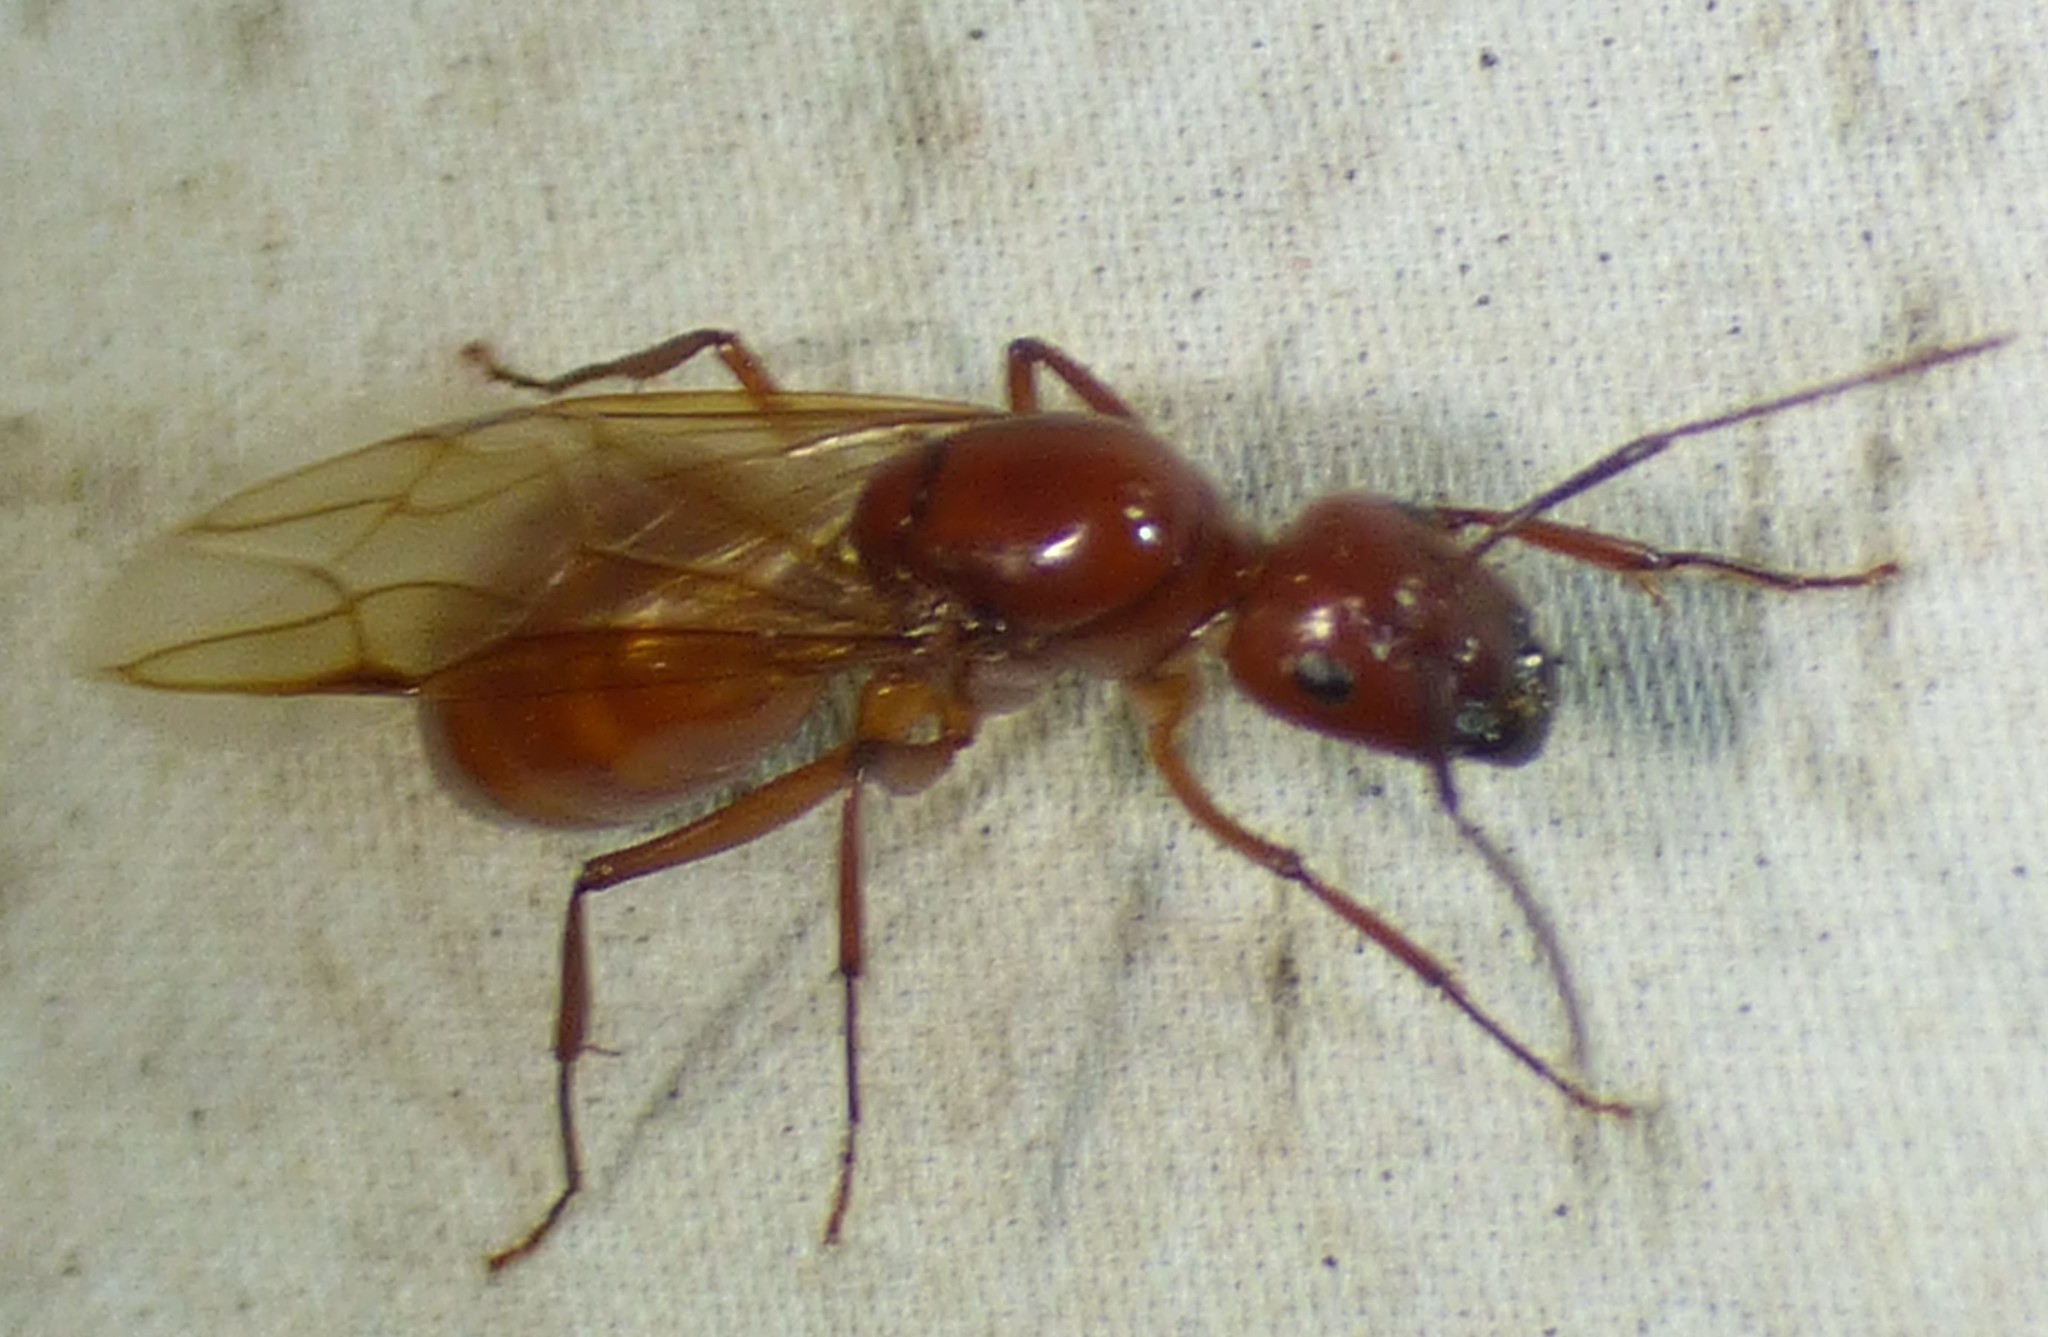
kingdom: Animalia
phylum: Arthropoda
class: Insecta
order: Hymenoptera
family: Formicidae
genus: Camponotus
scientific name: Camponotus castaneus
